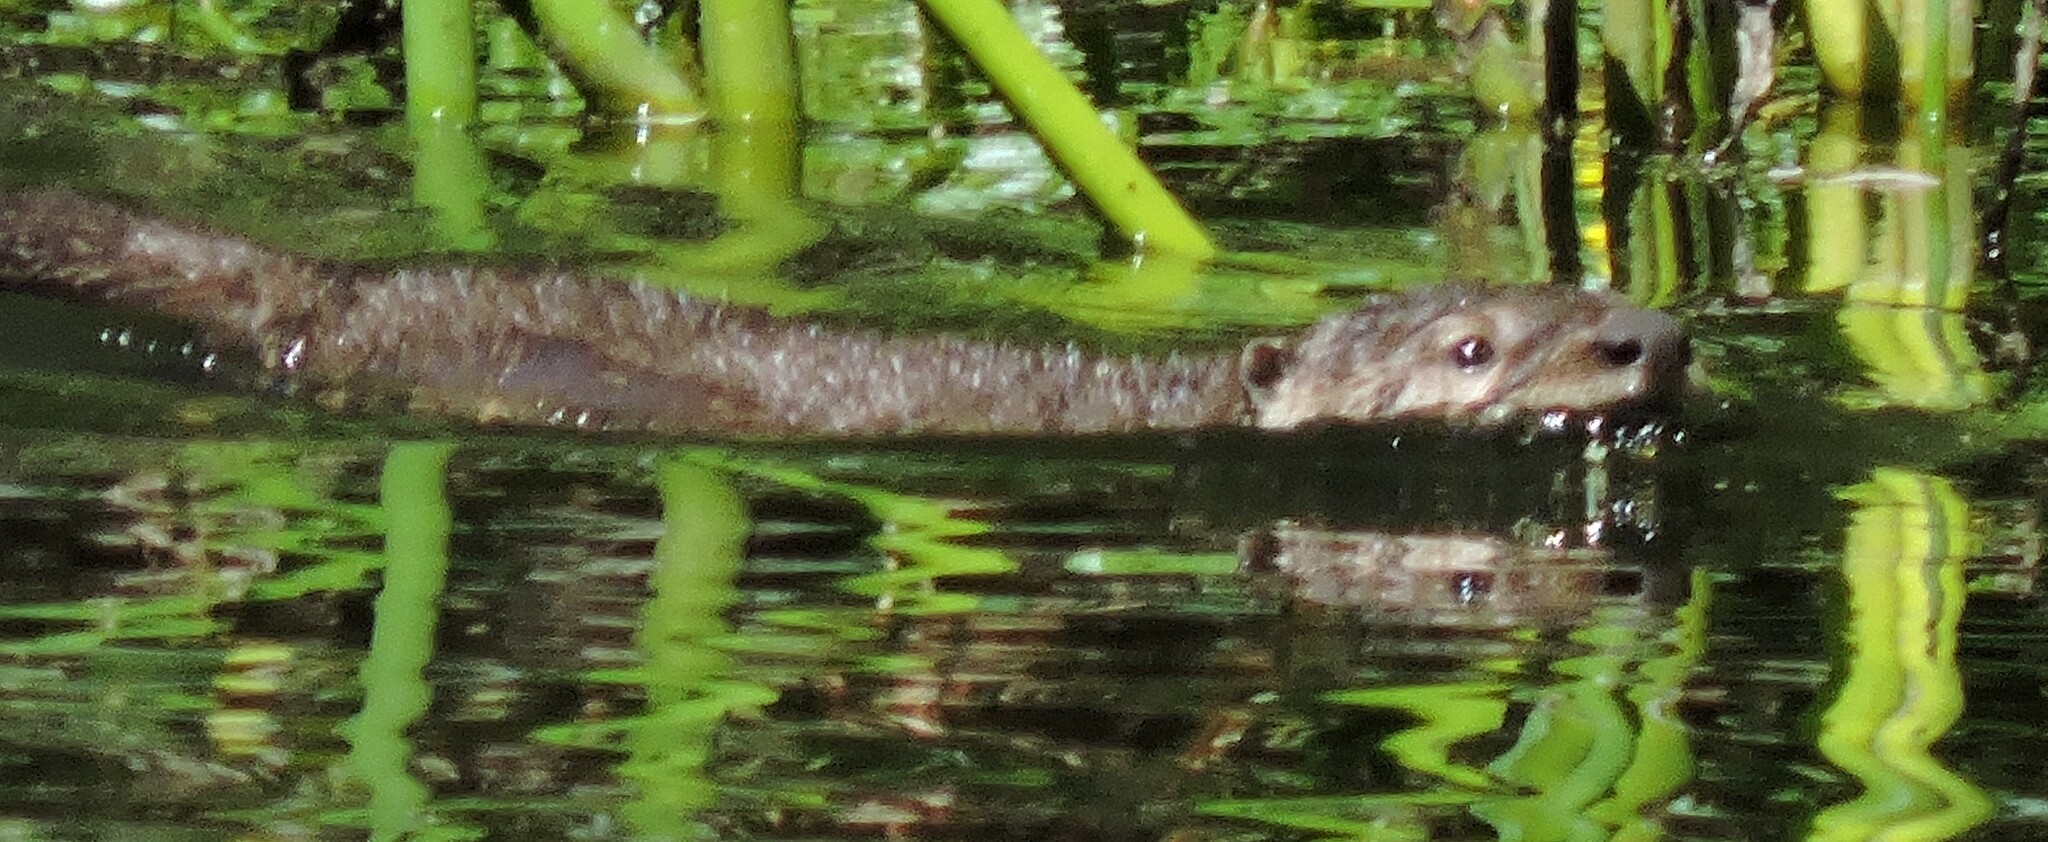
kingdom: Animalia
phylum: Chordata
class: Mammalia
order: Carnivora
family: Mustelidae
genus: Lontra
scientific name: Lontra canadensis
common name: North american river otter
